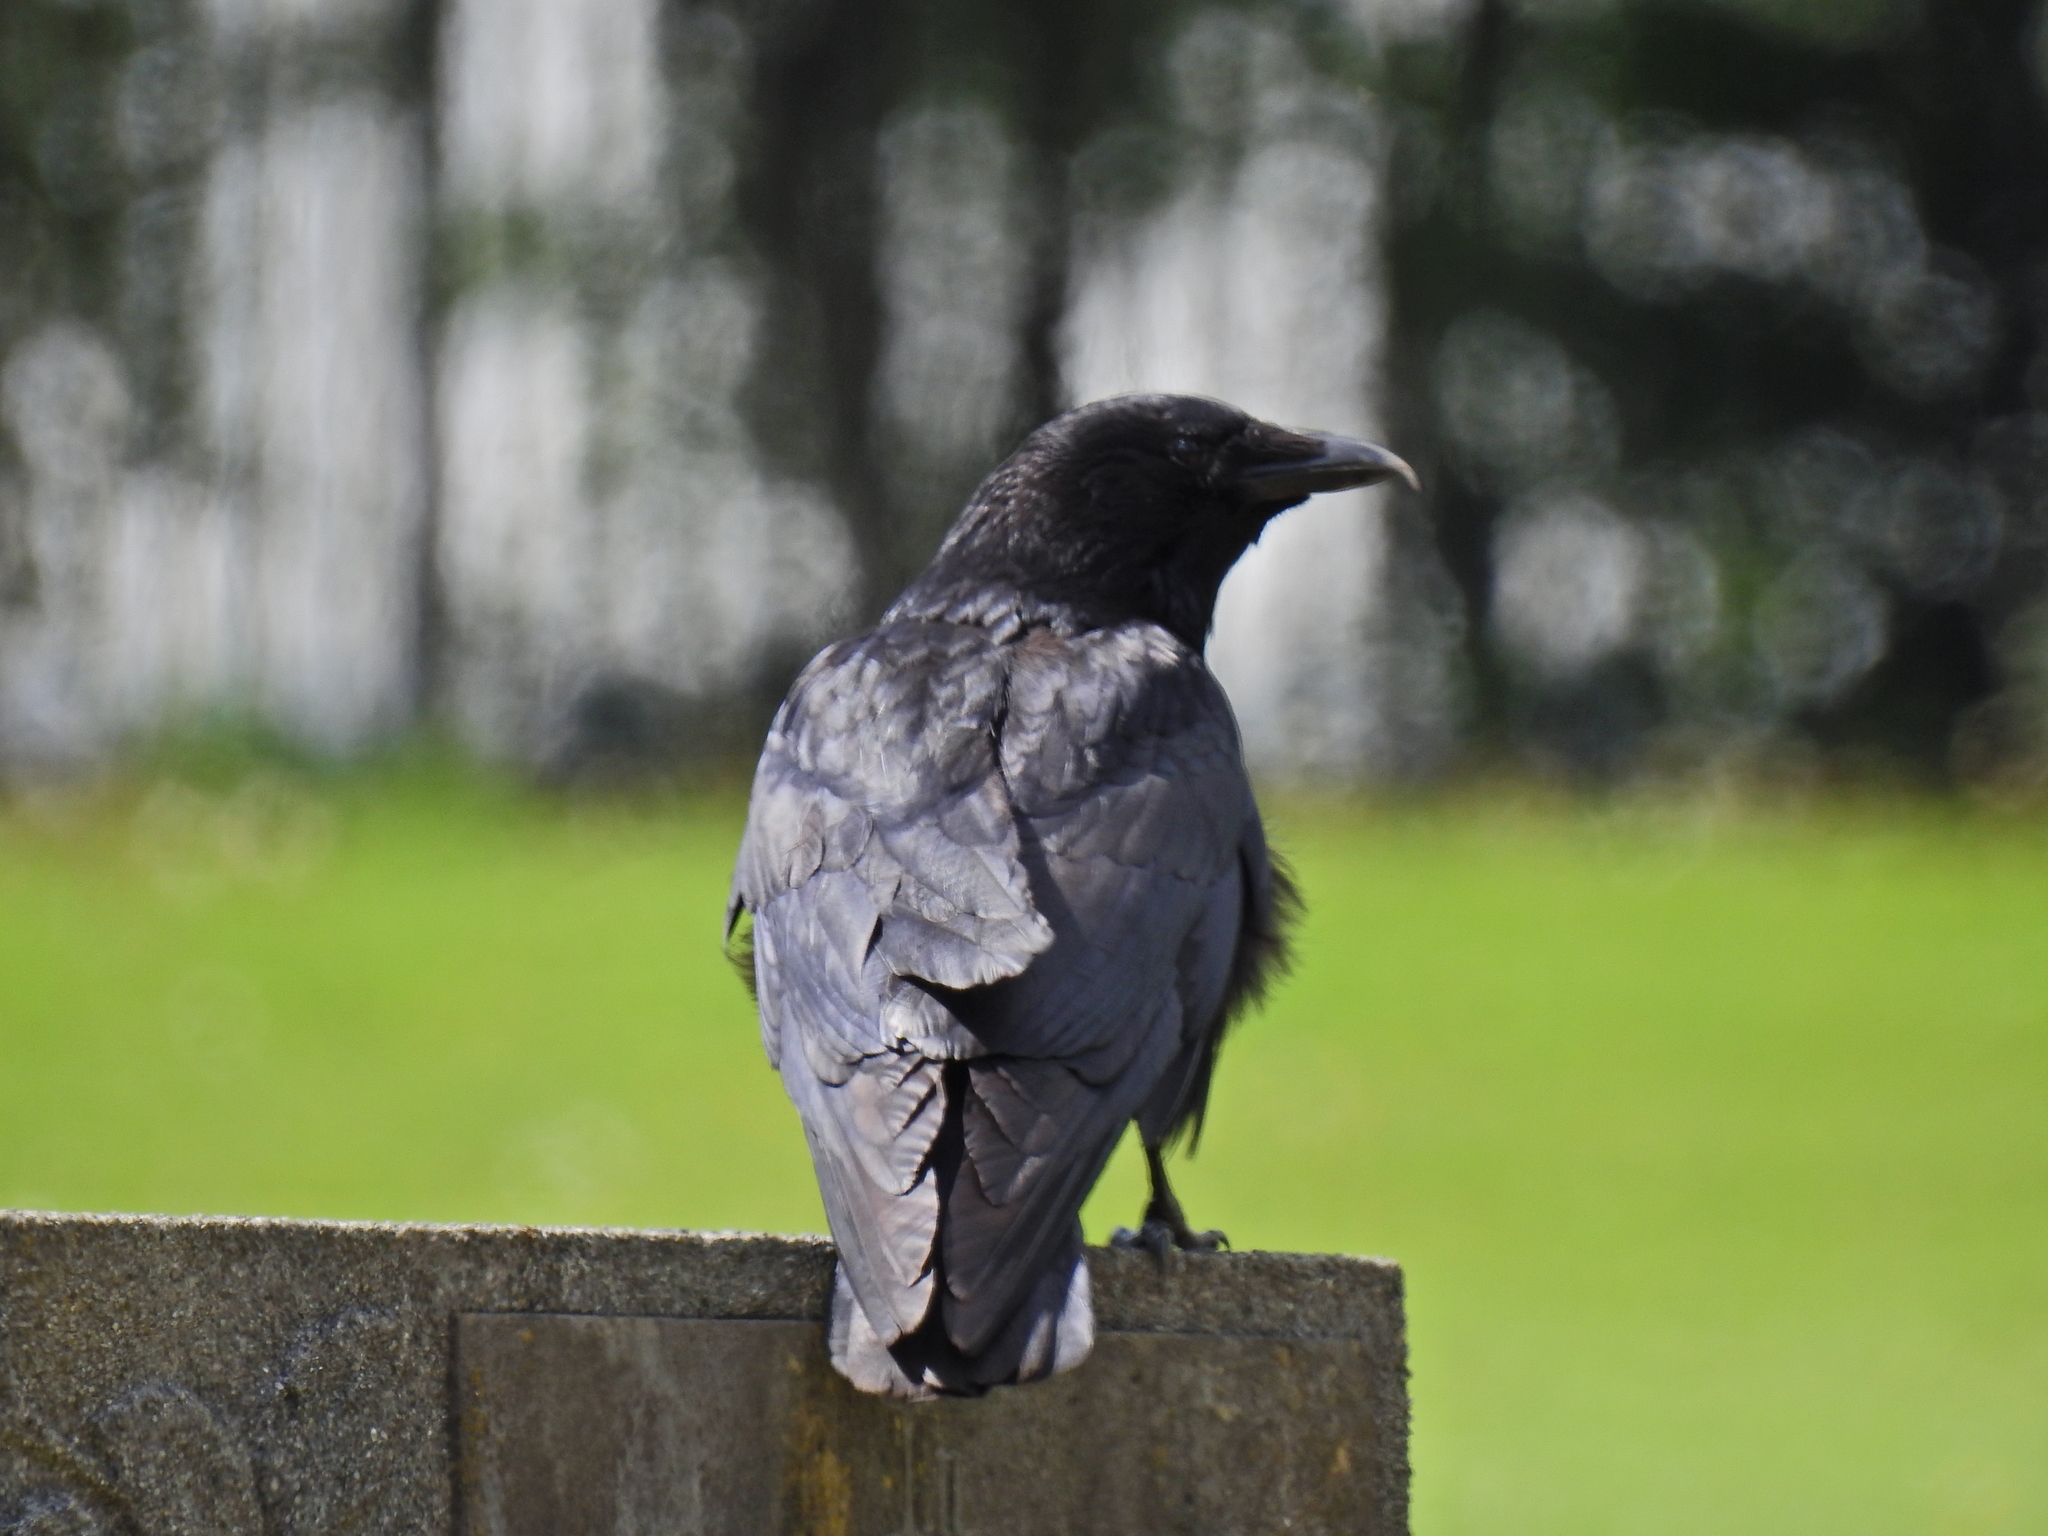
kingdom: Animalia
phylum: Chordata
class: Aves
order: Passeriformes
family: Corvidae
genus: Corvus
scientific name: Corvus corone
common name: Carrion crow
